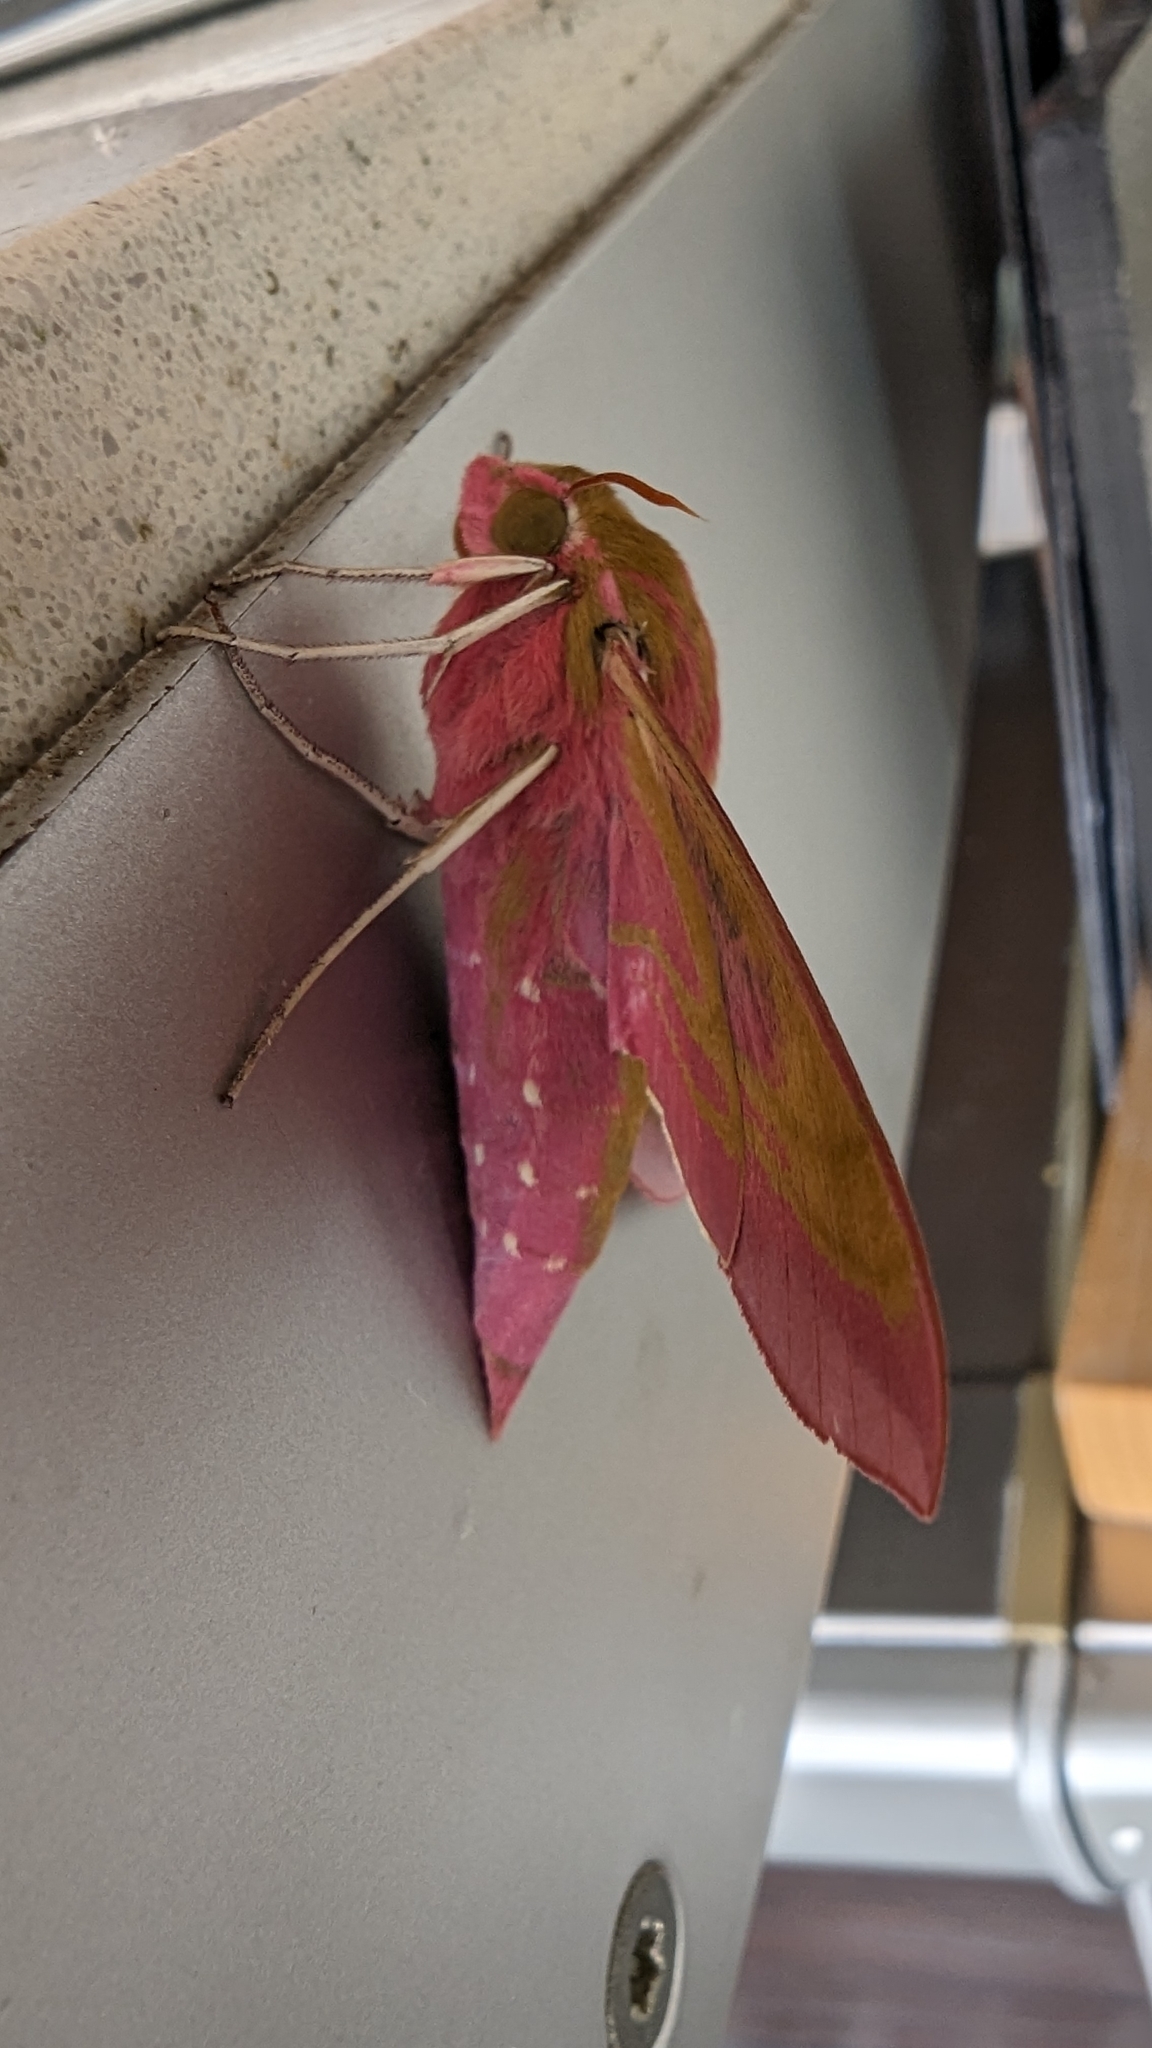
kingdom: Animalia
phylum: Arthropoda
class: Insecta
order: Lepidoptera
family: Sphingidae
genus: Deilephila
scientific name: Deilephila elpenor
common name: Elephant hawk-moth
